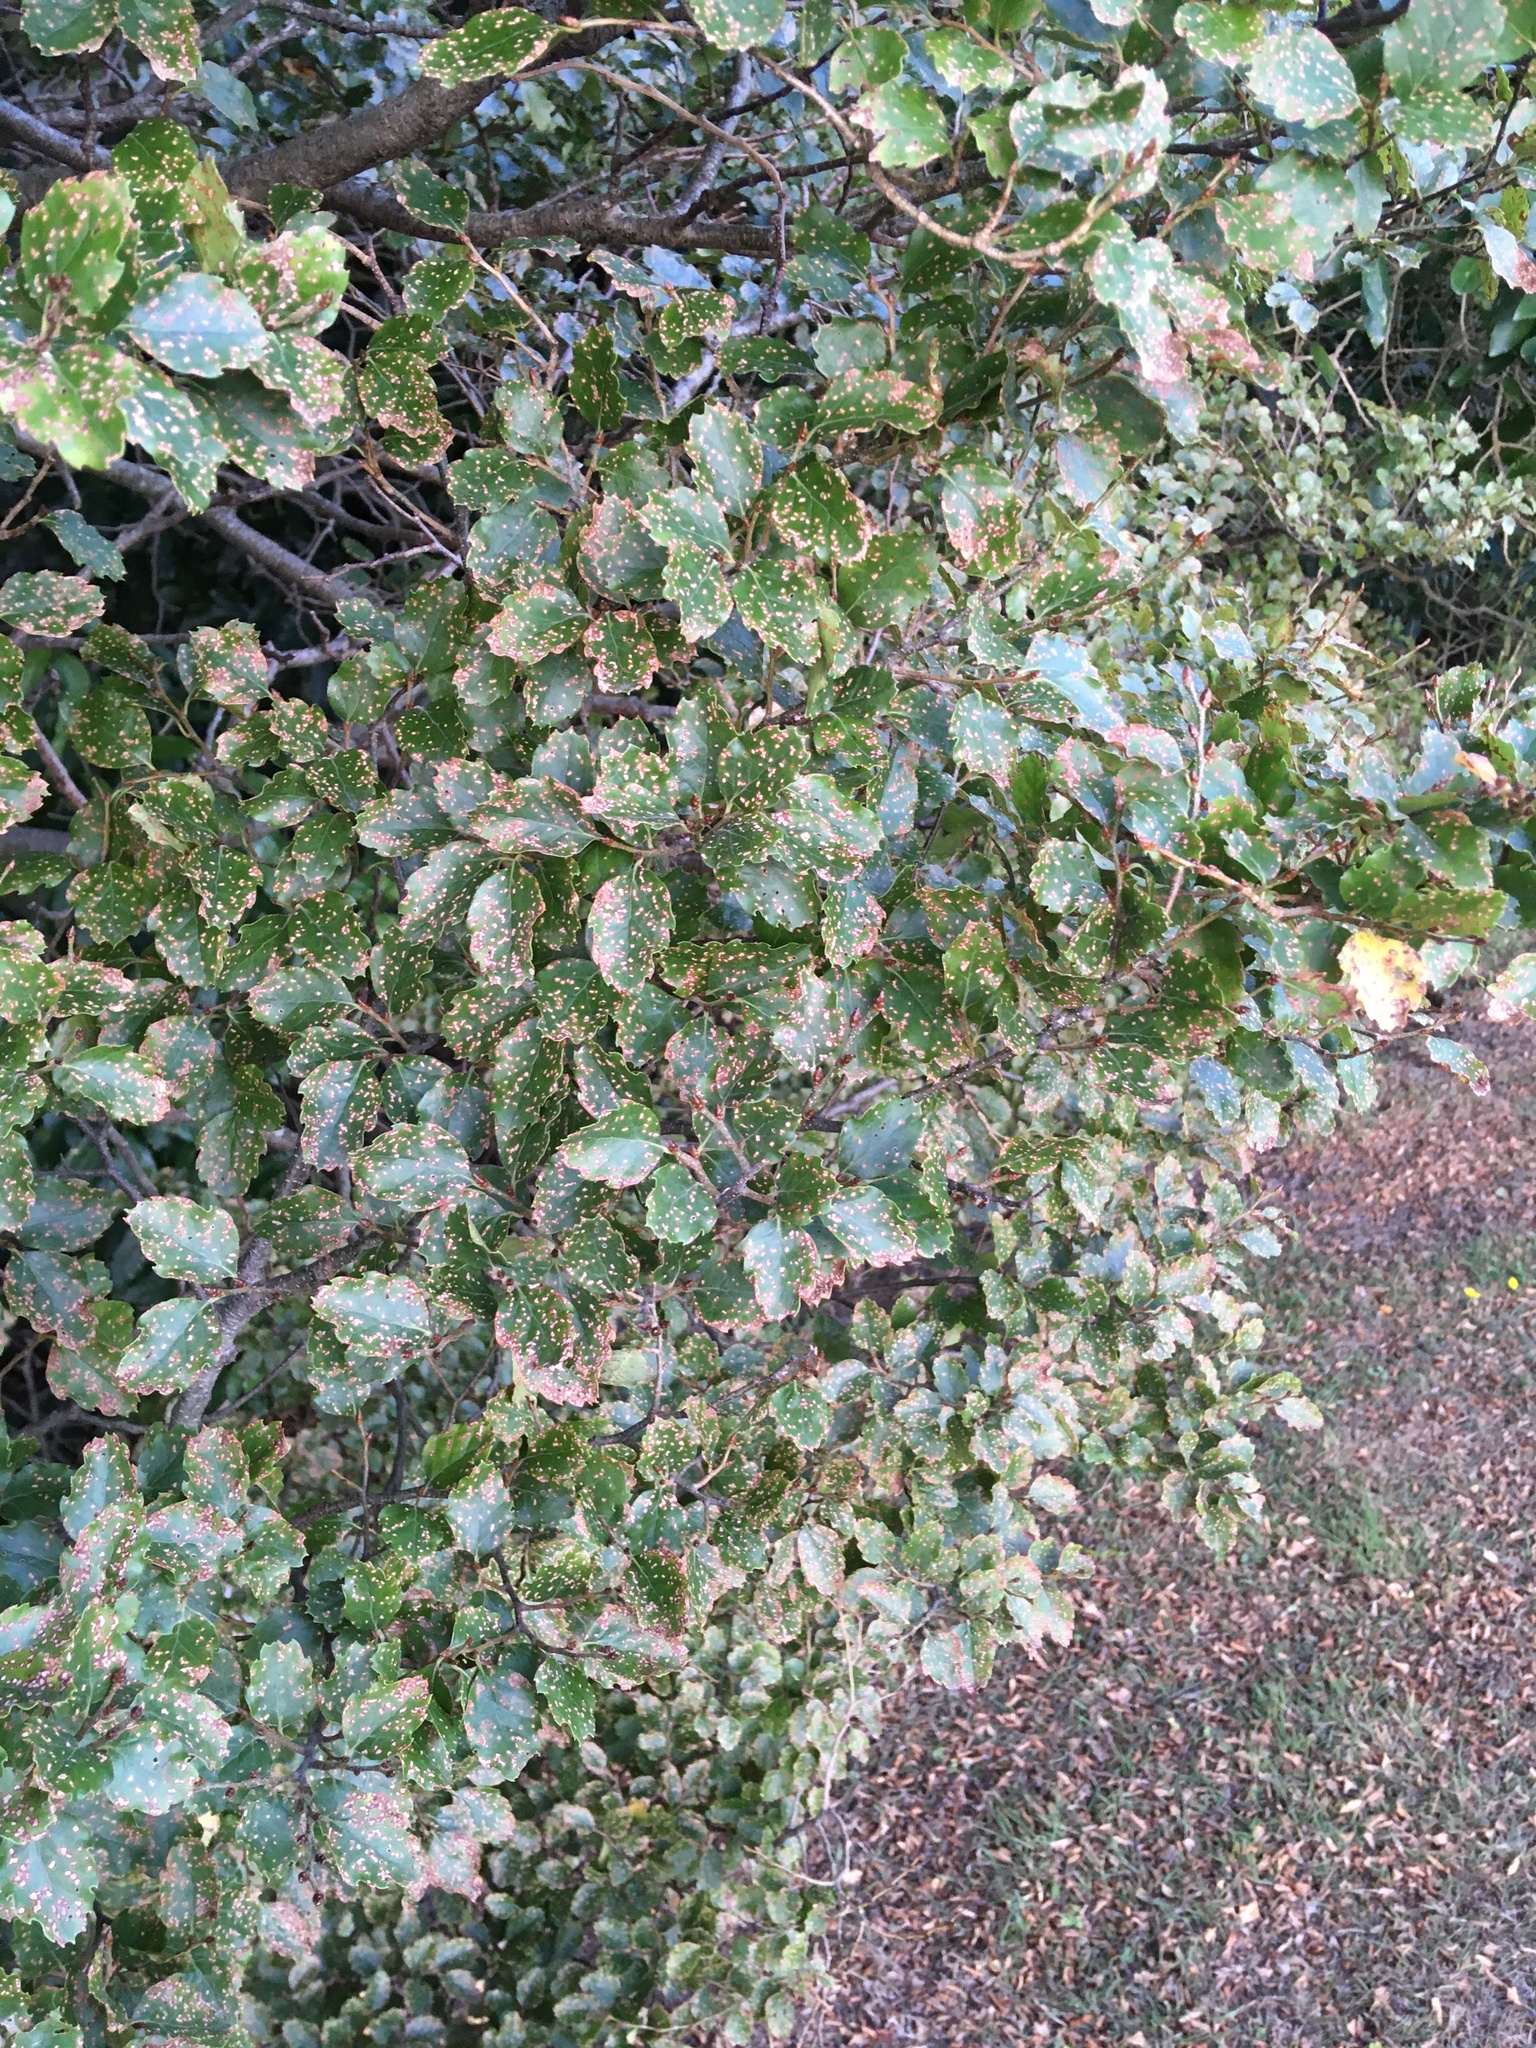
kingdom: Plantae
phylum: Tracheophyta
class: Magnoliopsida
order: Fagales
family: Nothofagaceae
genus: Nothofagus
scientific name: Nothofagus fusca
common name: Red beech
